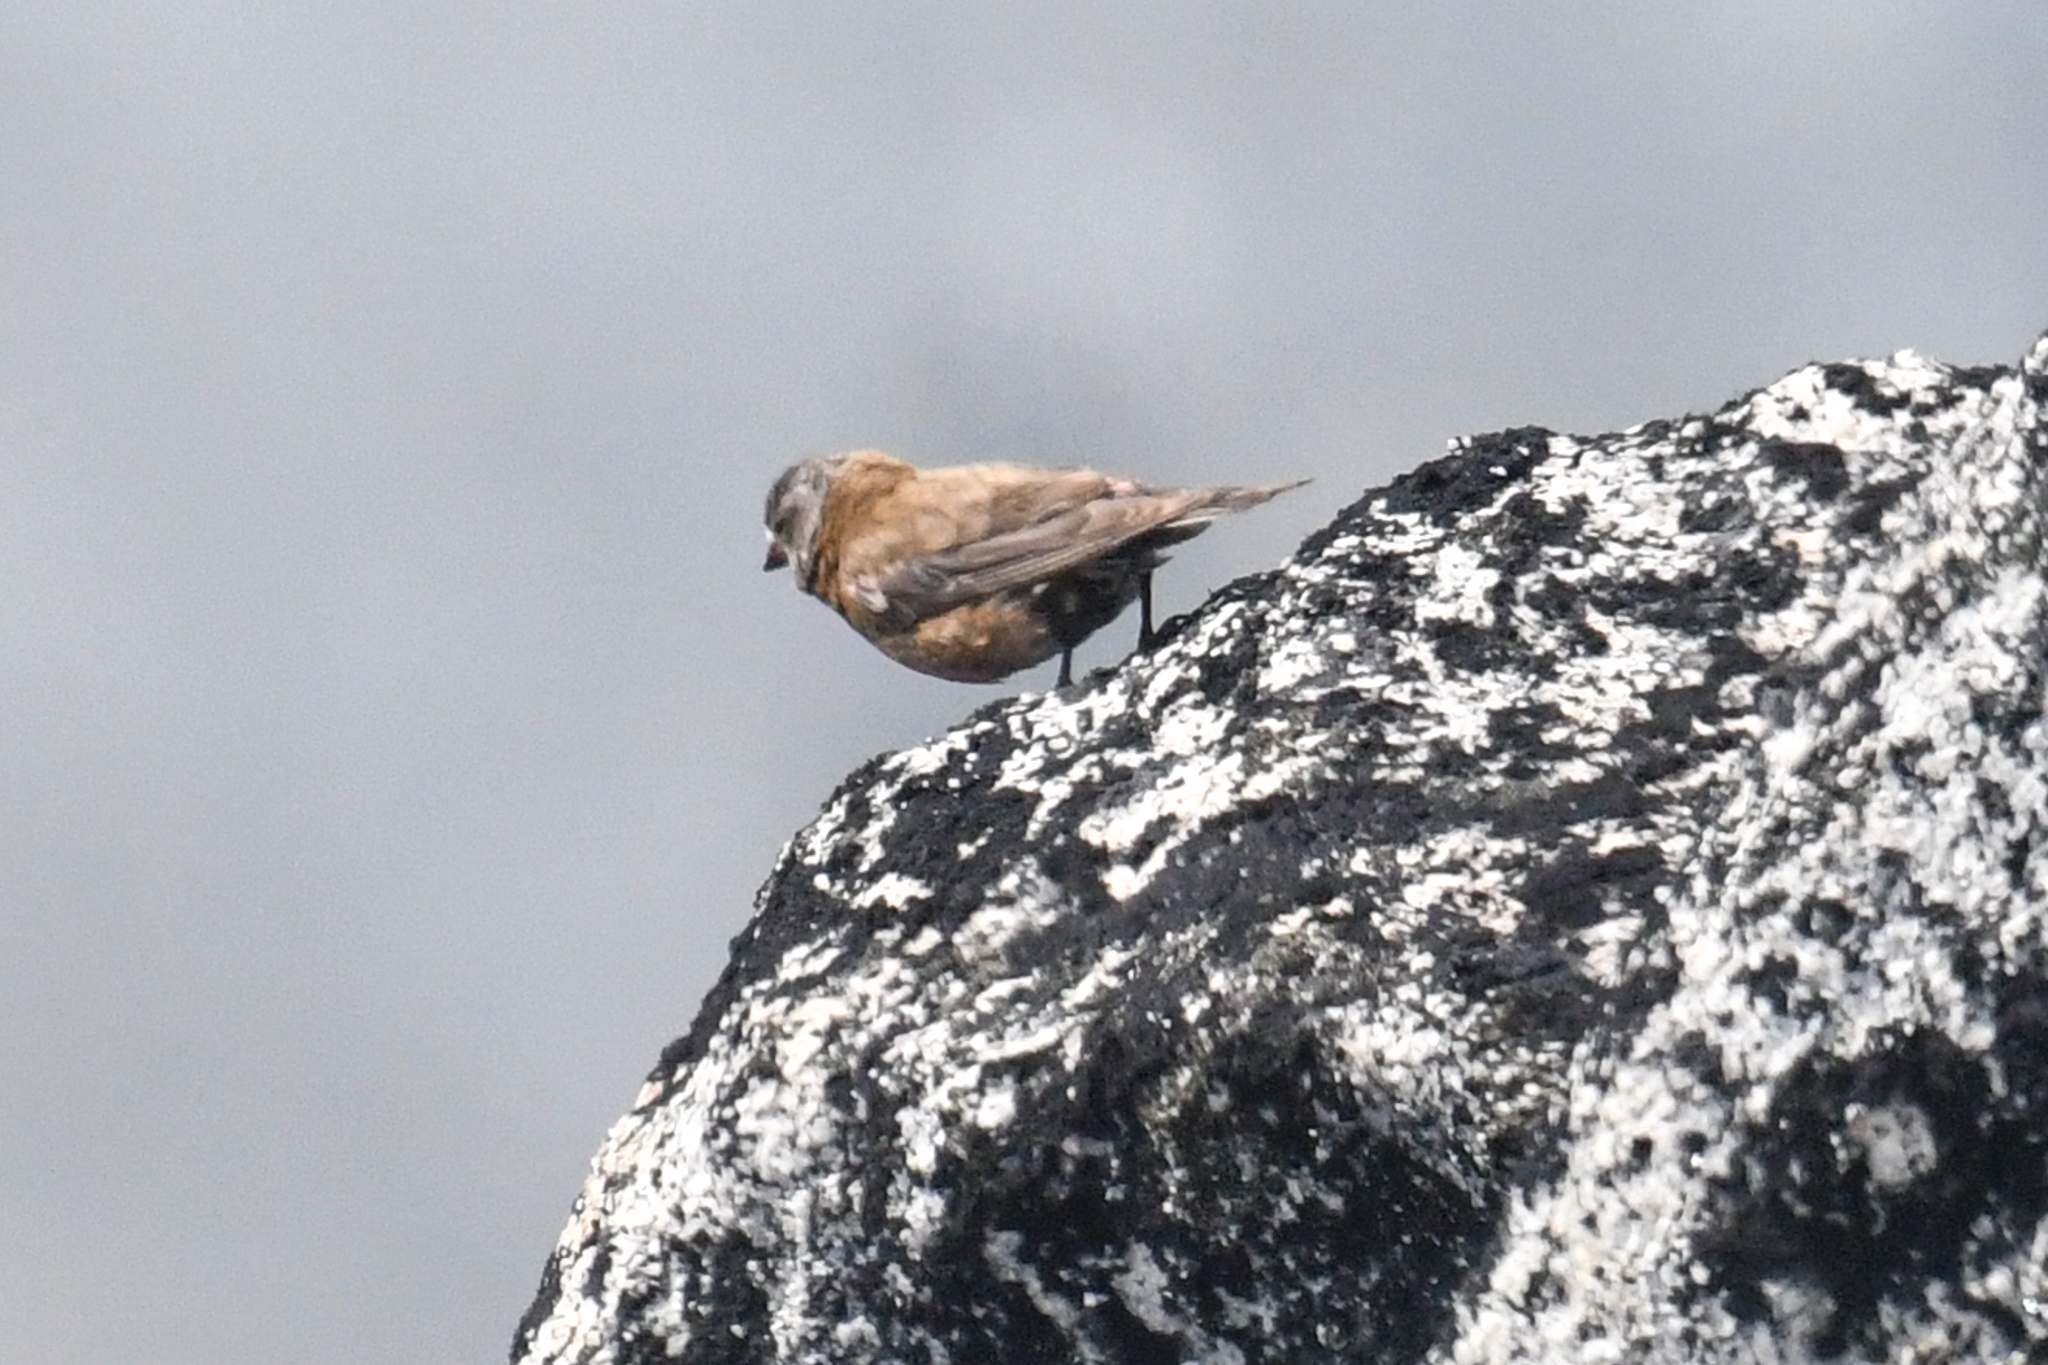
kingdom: Animalia
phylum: Chordata
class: Aves
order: Passeriformes
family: Fringillidae
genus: Leucosticte
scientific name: Leucosticte tephrocotis
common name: Gray-crowned rosy-finch
